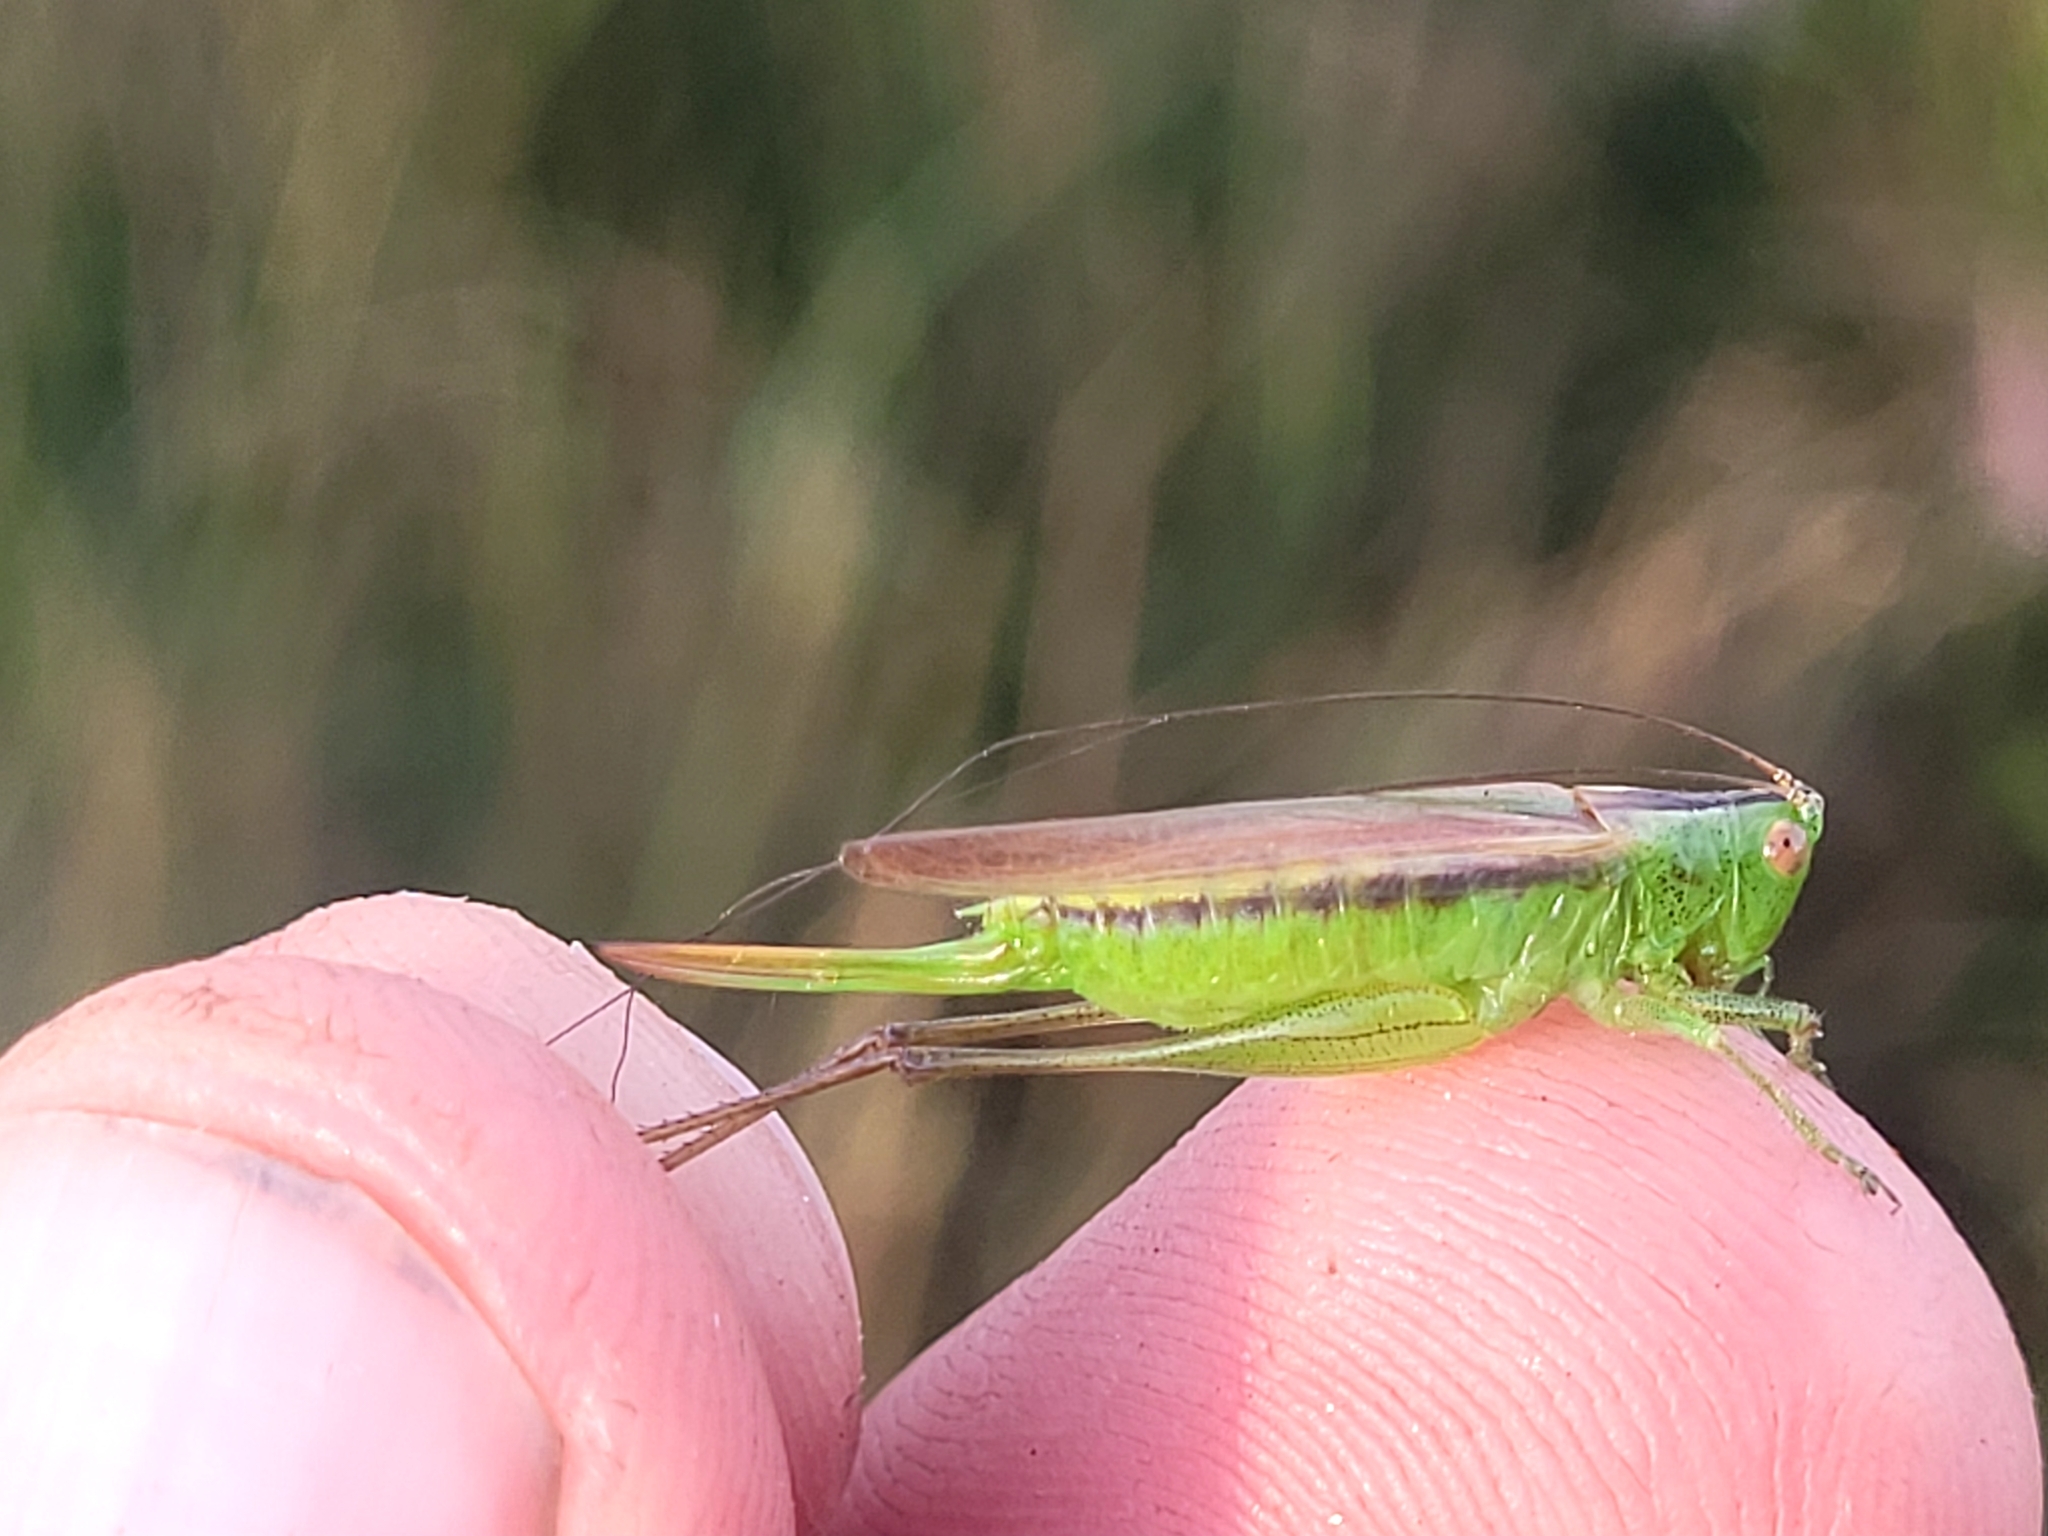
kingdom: Animalia
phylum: Arthropoda
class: Insecta
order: Orthoptera
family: Tettigoniidae
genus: Conocephalus
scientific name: Conocephalus fasciatus
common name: Slender meadow katydid
